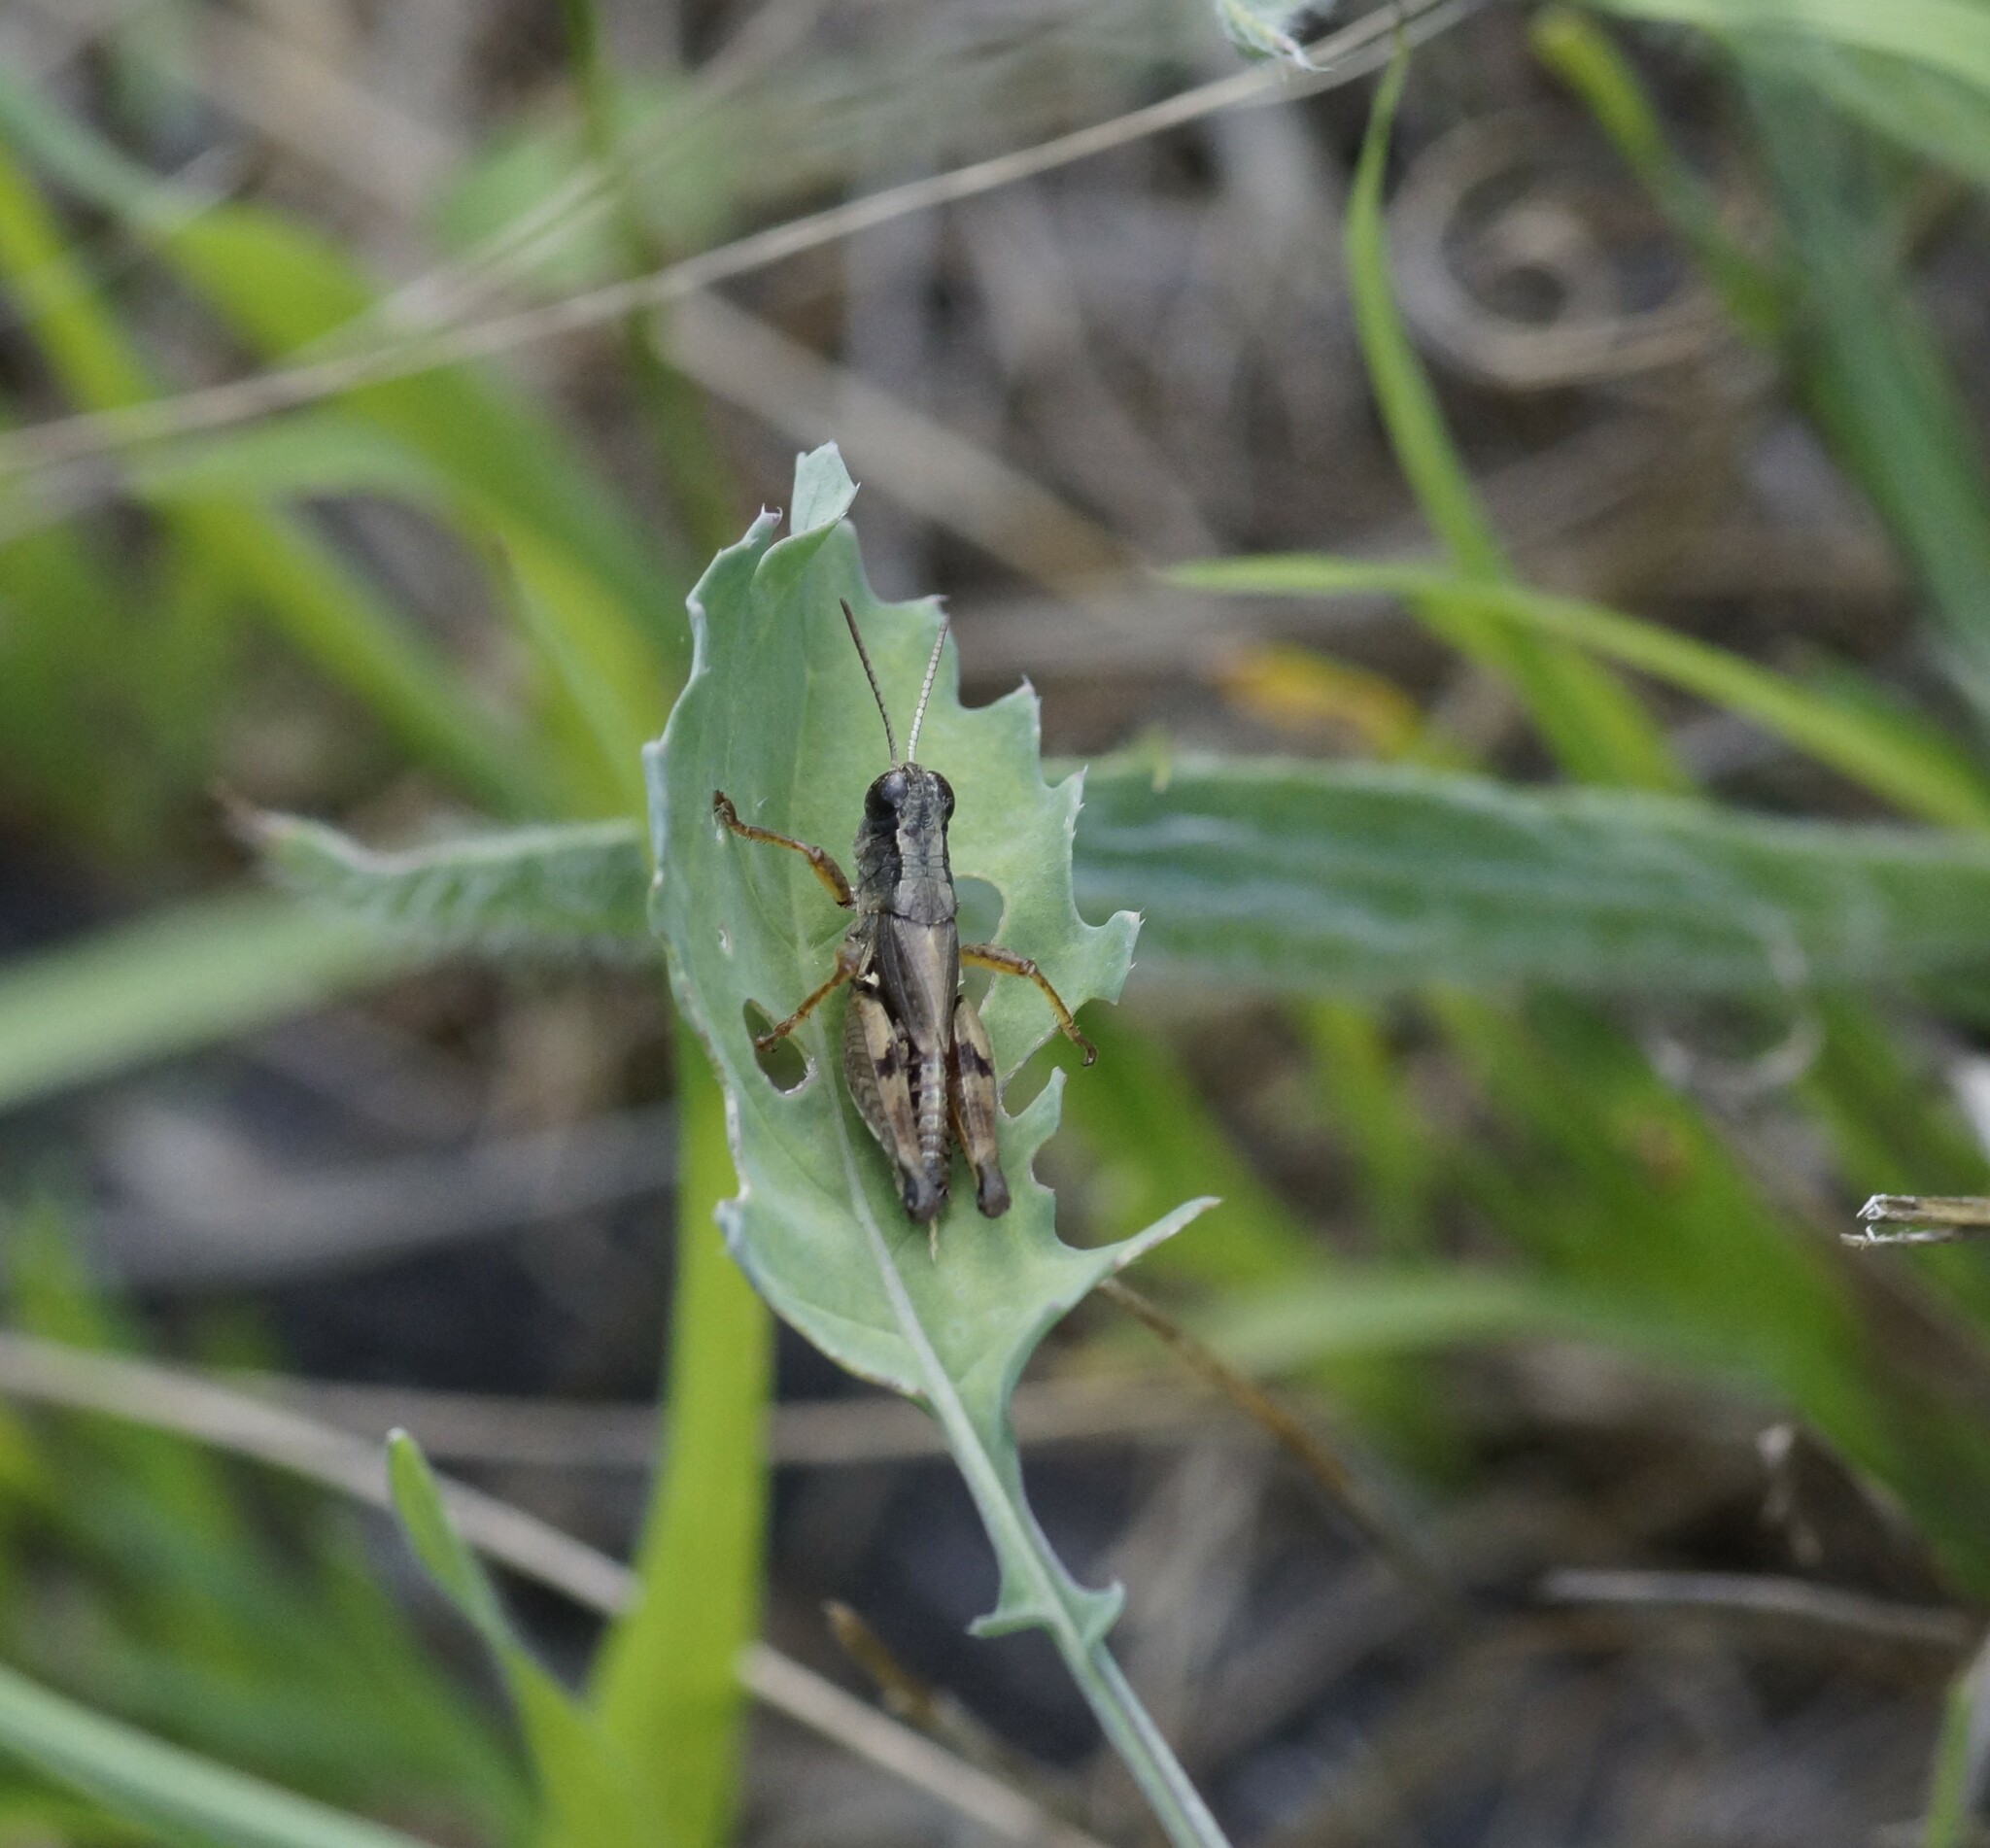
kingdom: Animalia
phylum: Arthropoda
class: Insecta
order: Orthoptera
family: Acrididae
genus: Phaulacridium
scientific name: Phaulacridium vittatum
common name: Wingless grasshopper
